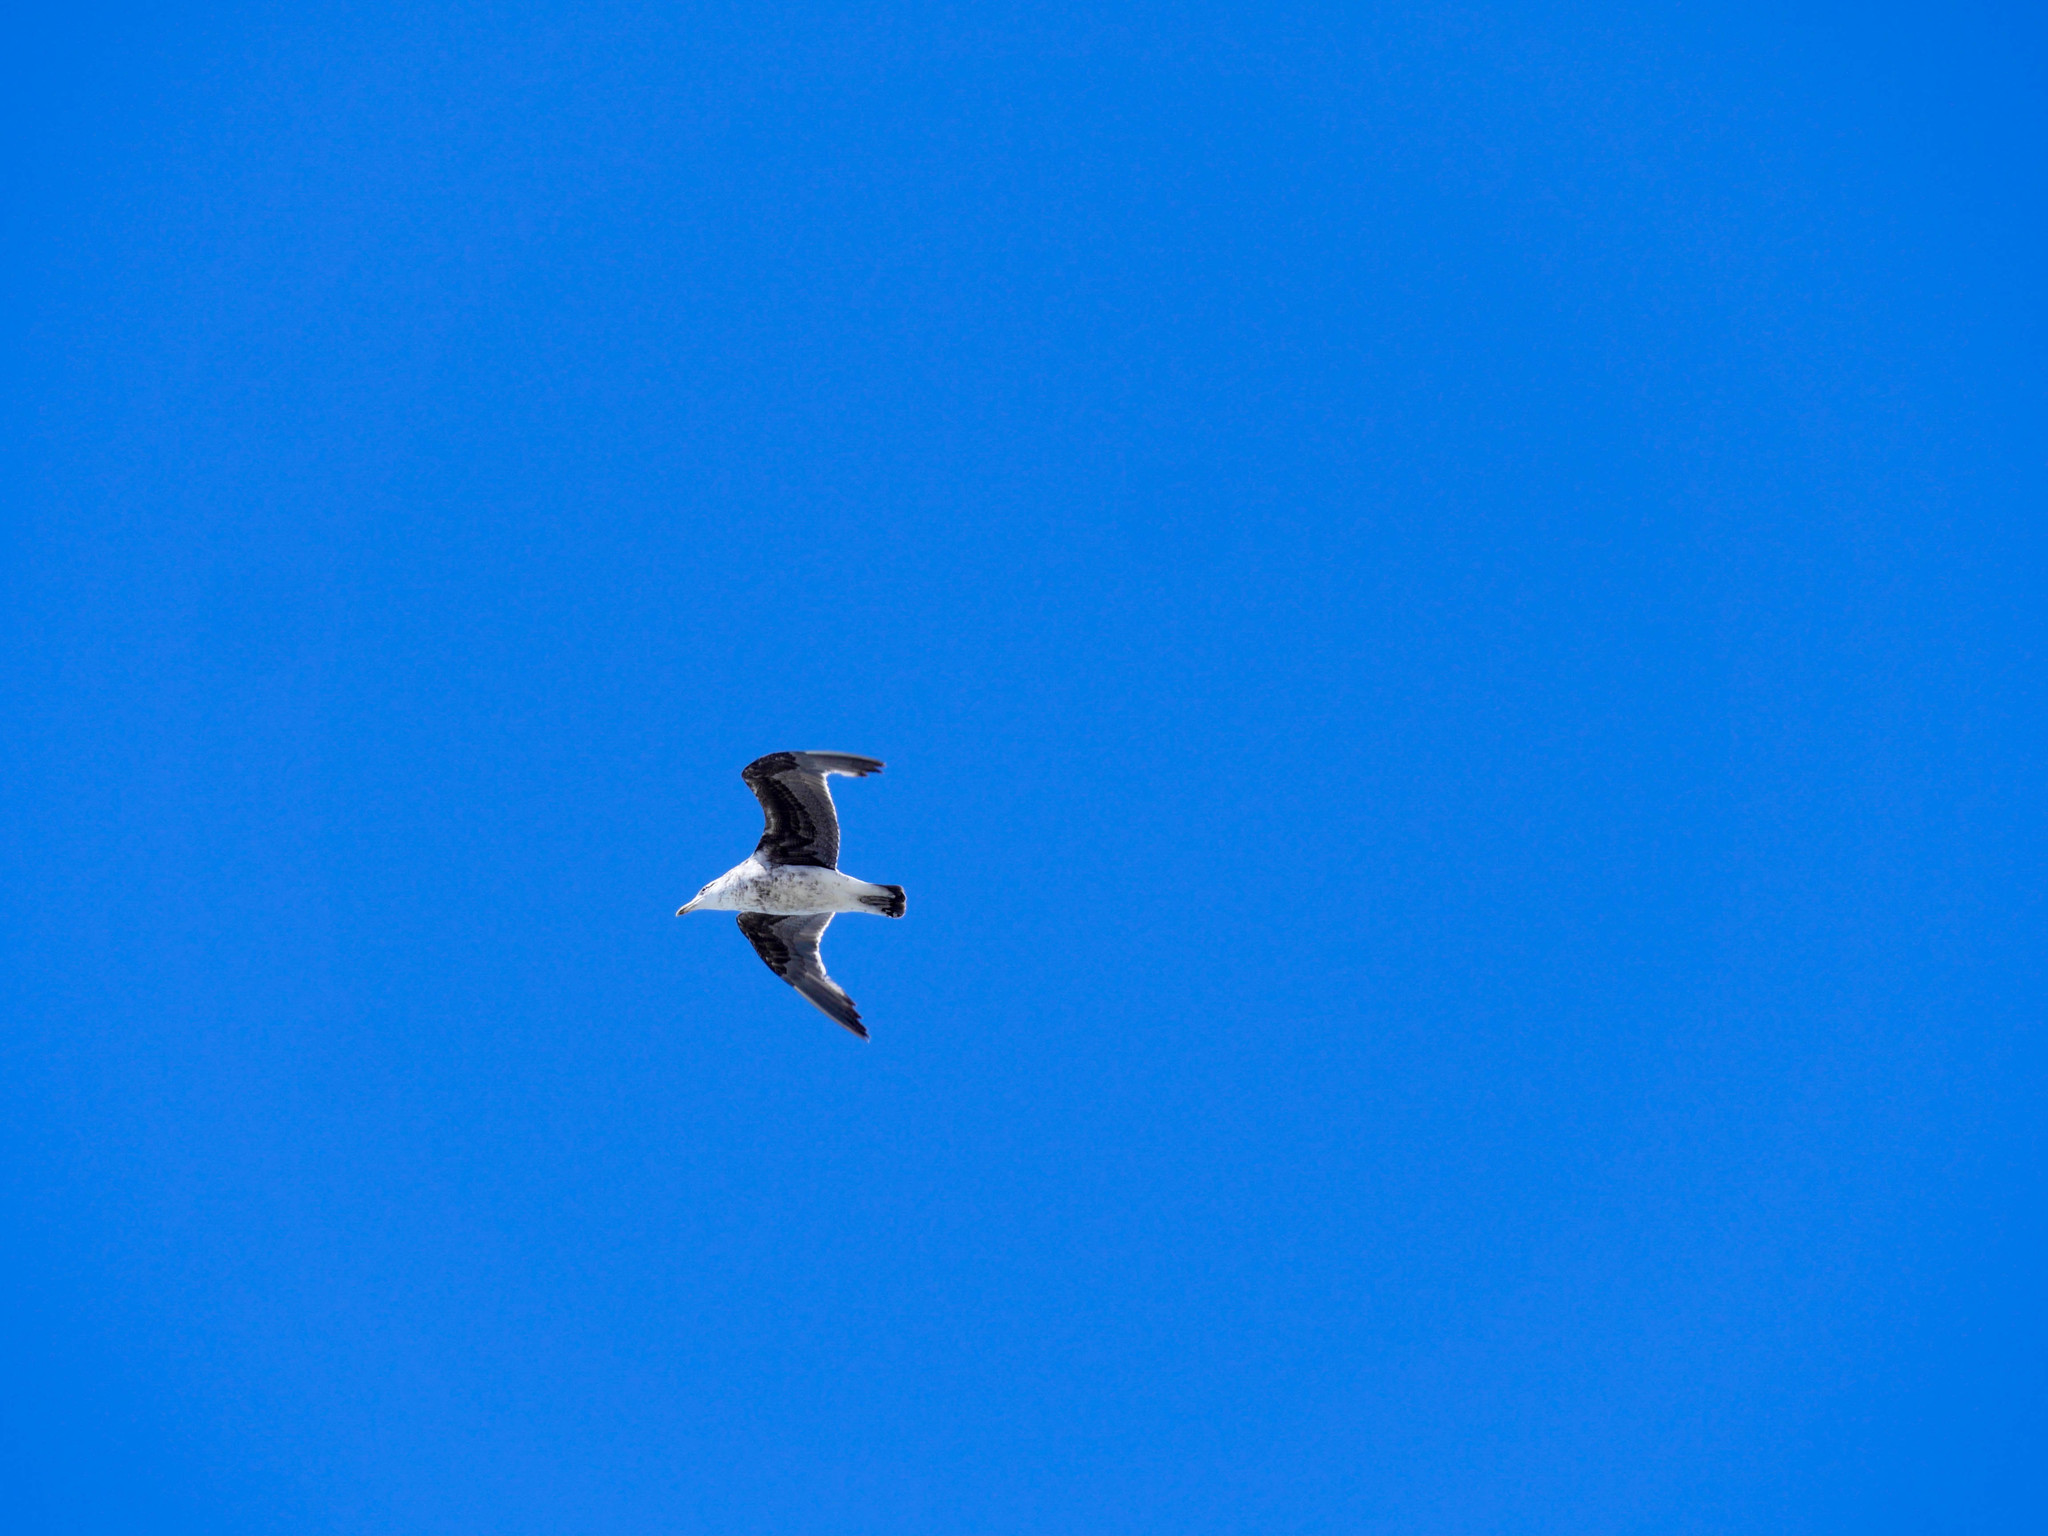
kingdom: Animalia
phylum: Chordata
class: Aves
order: Charadriiformes
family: Laridae
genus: Larus
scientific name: Larus dominicanus
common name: Kelp gull
